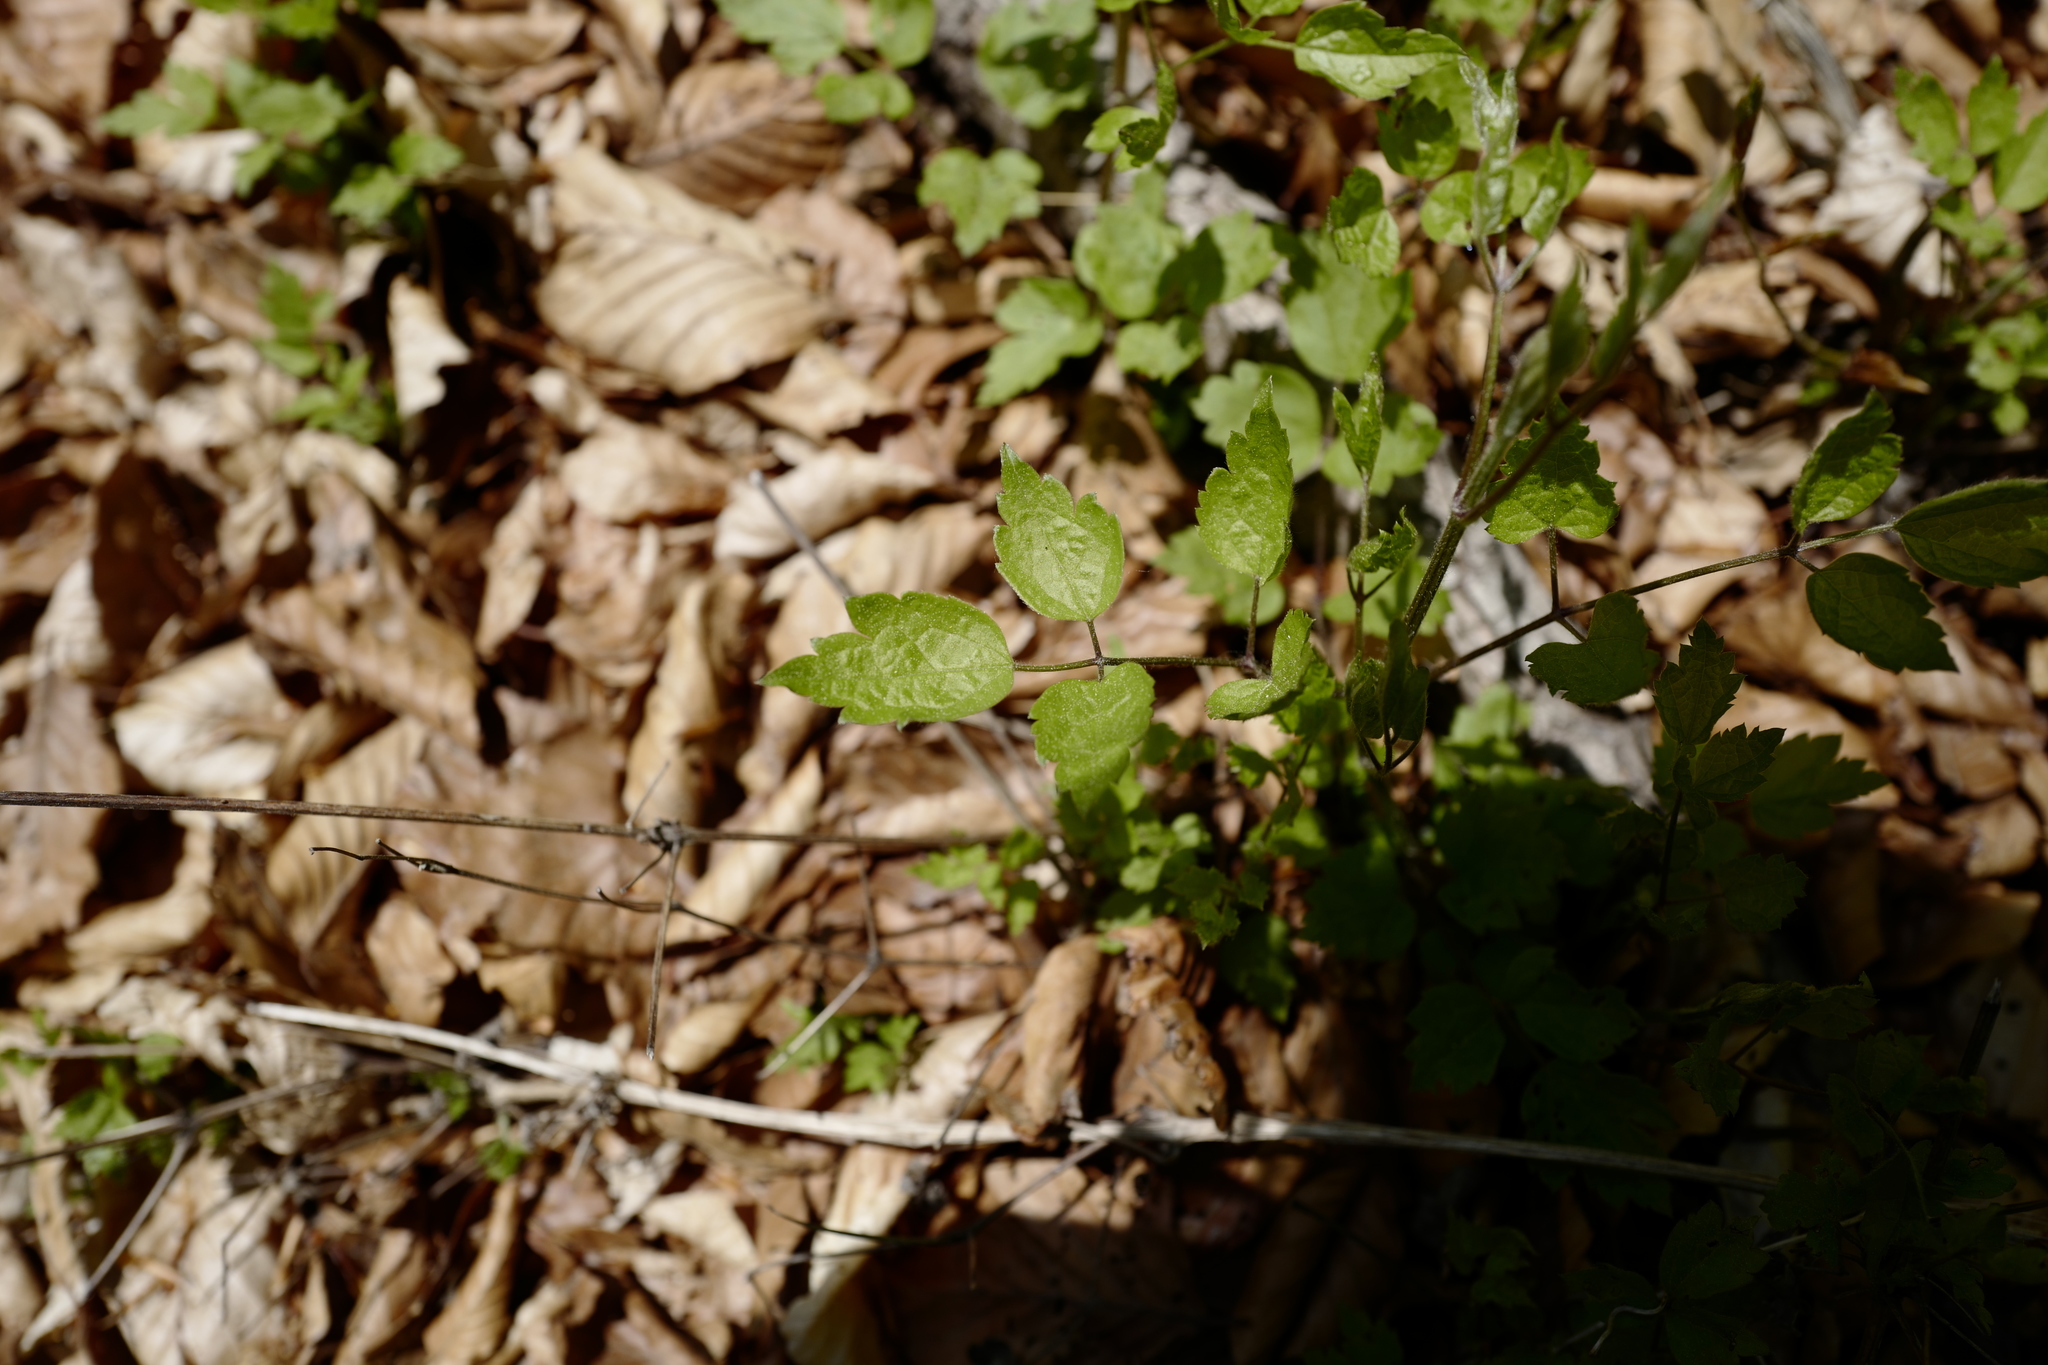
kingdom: Plantae
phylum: Tracheophyta
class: Magnoliopsida
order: Ranunculales
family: Ranunculaceae
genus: Clematis
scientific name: Clematis vitalba
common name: Evergreen clematis
